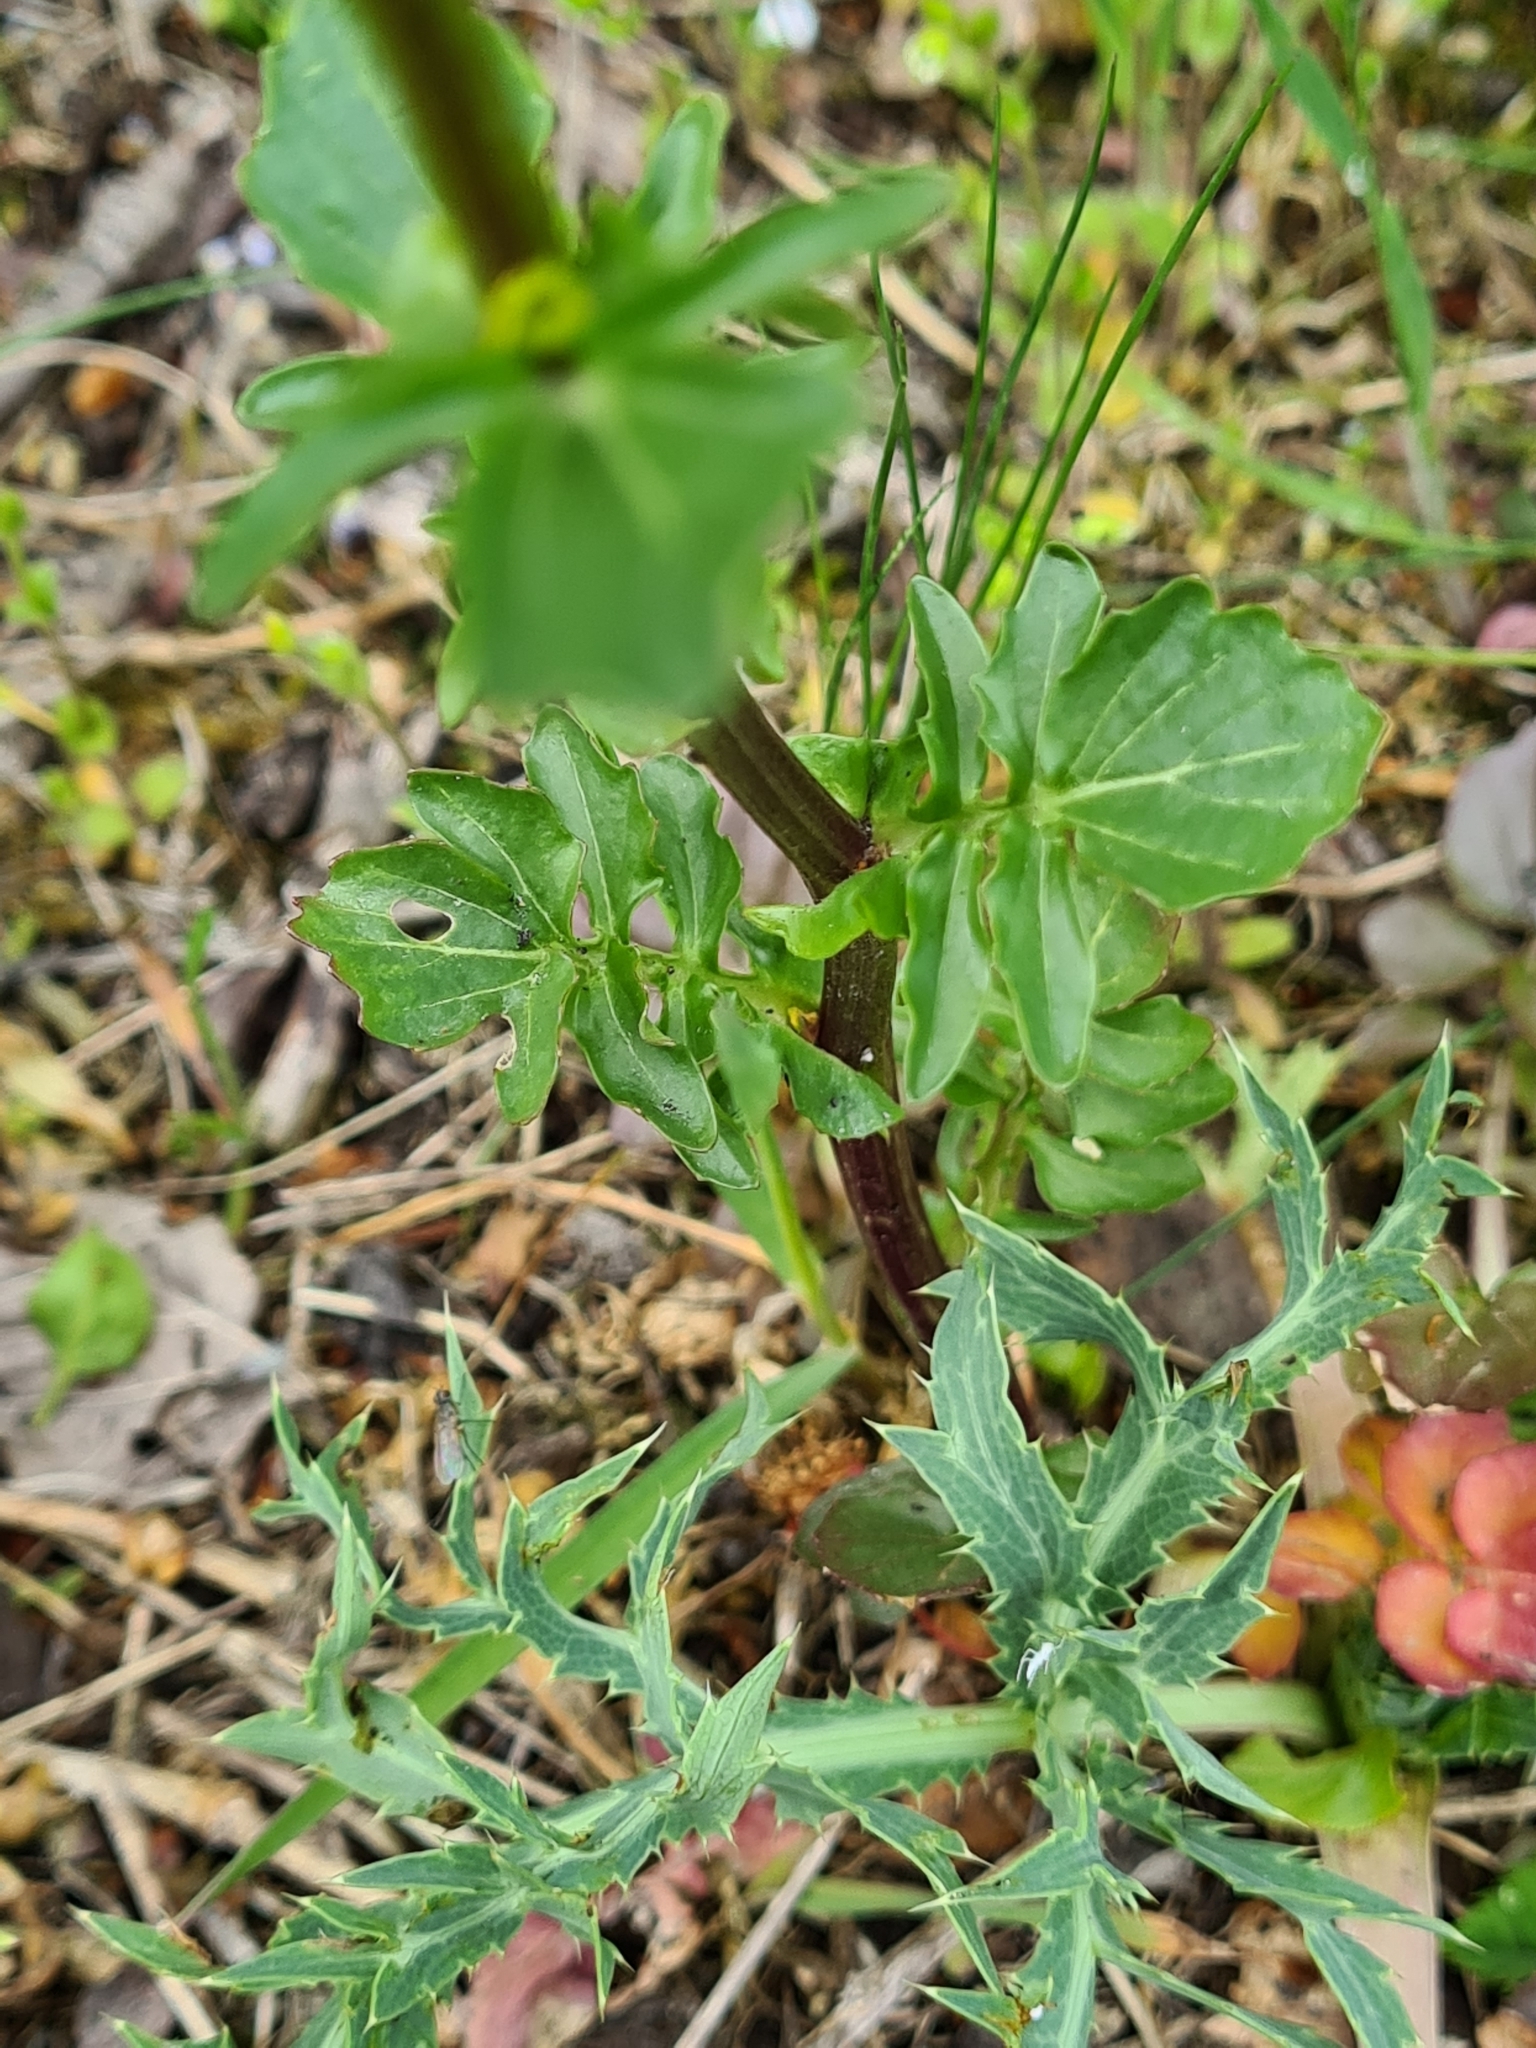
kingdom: Plantae
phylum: Tracheophyta
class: Magnoliopsida
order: Brassicales
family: Brassicaceae
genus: Barbarea
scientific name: Barbarea vulgaris
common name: Cressy-greens
